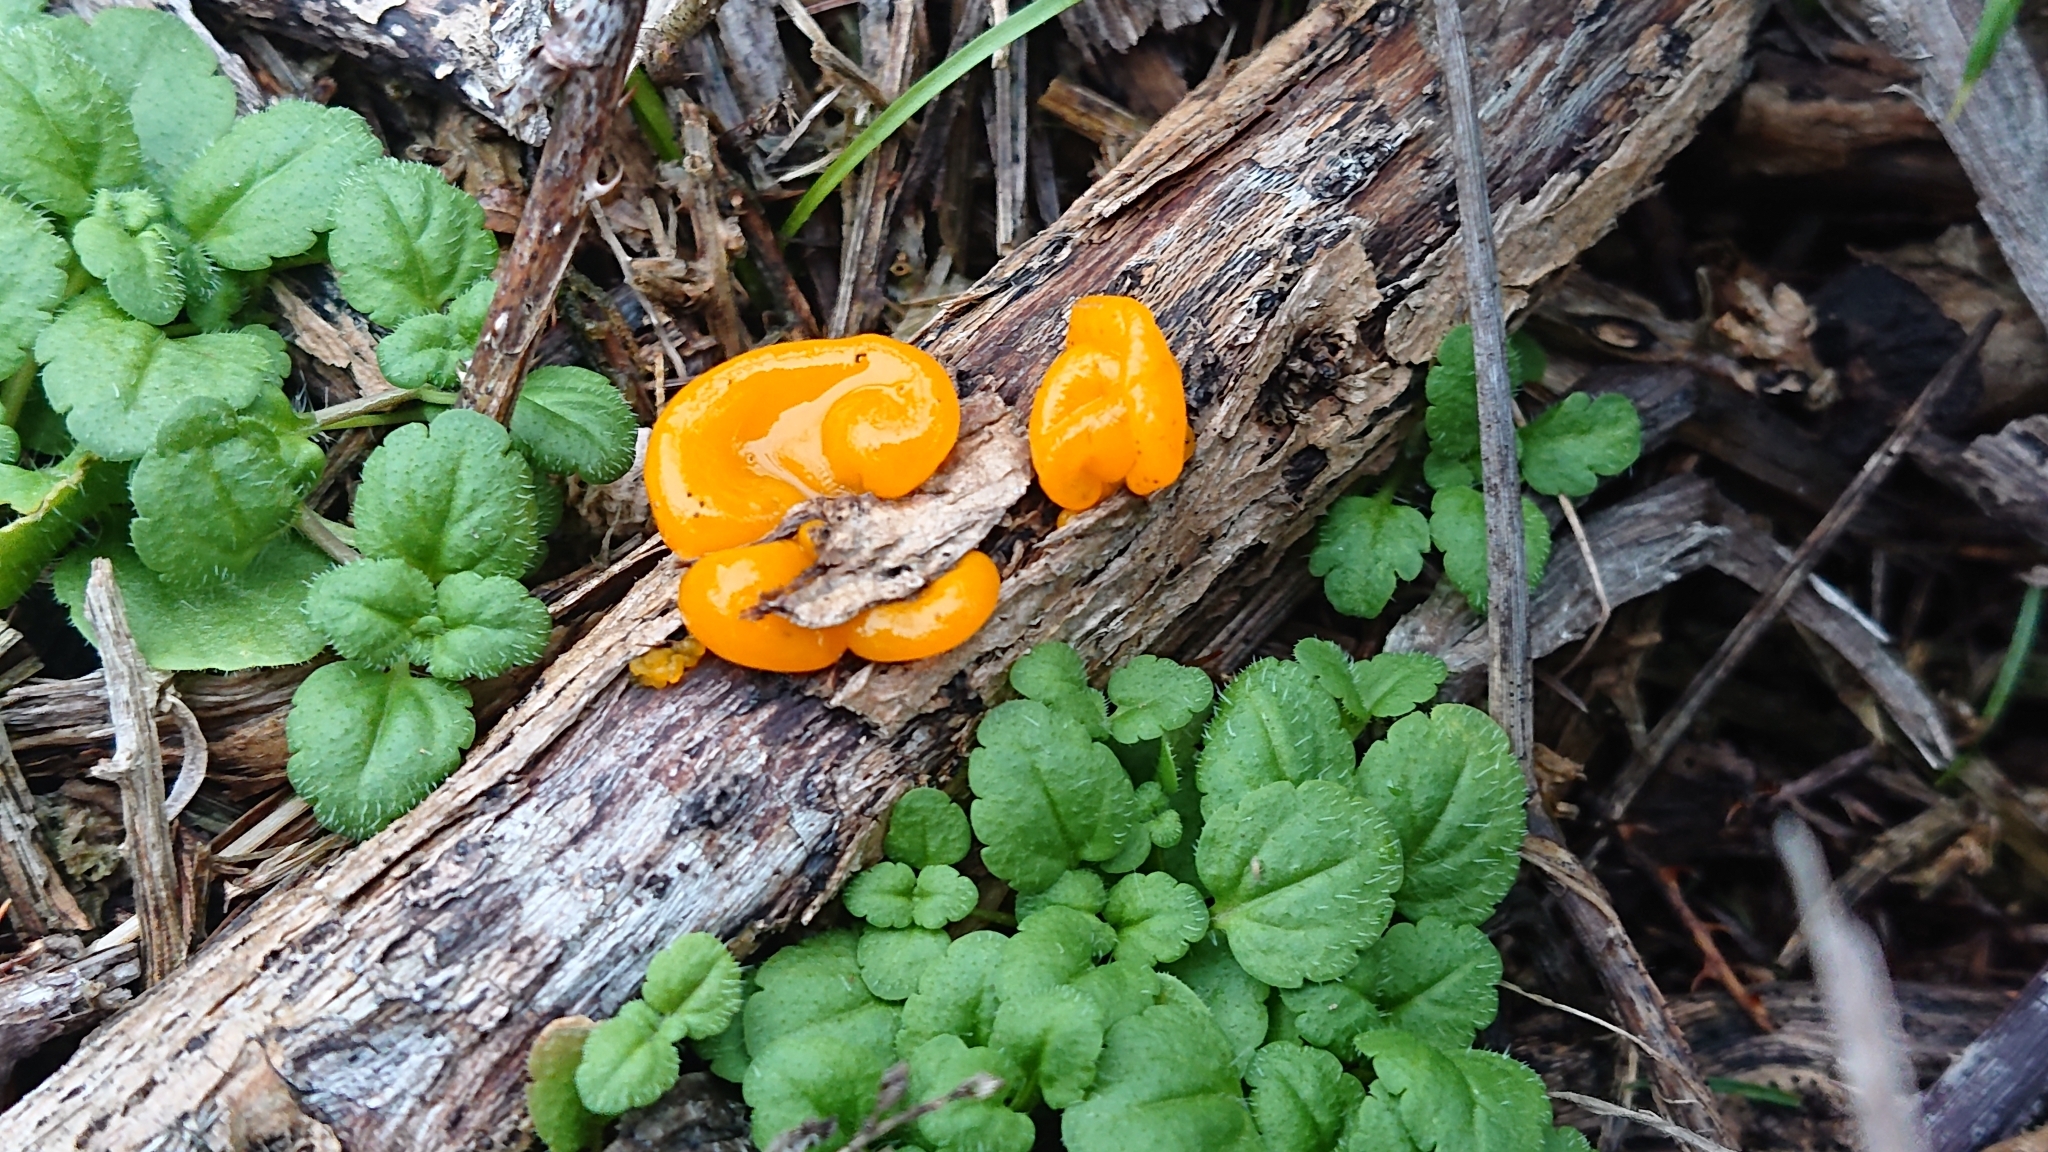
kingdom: Fungi
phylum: Basidiomycota
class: Tremellomycetes
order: Tremellales
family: Tremellaceae
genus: Tremella
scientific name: Tremella mesenterica
